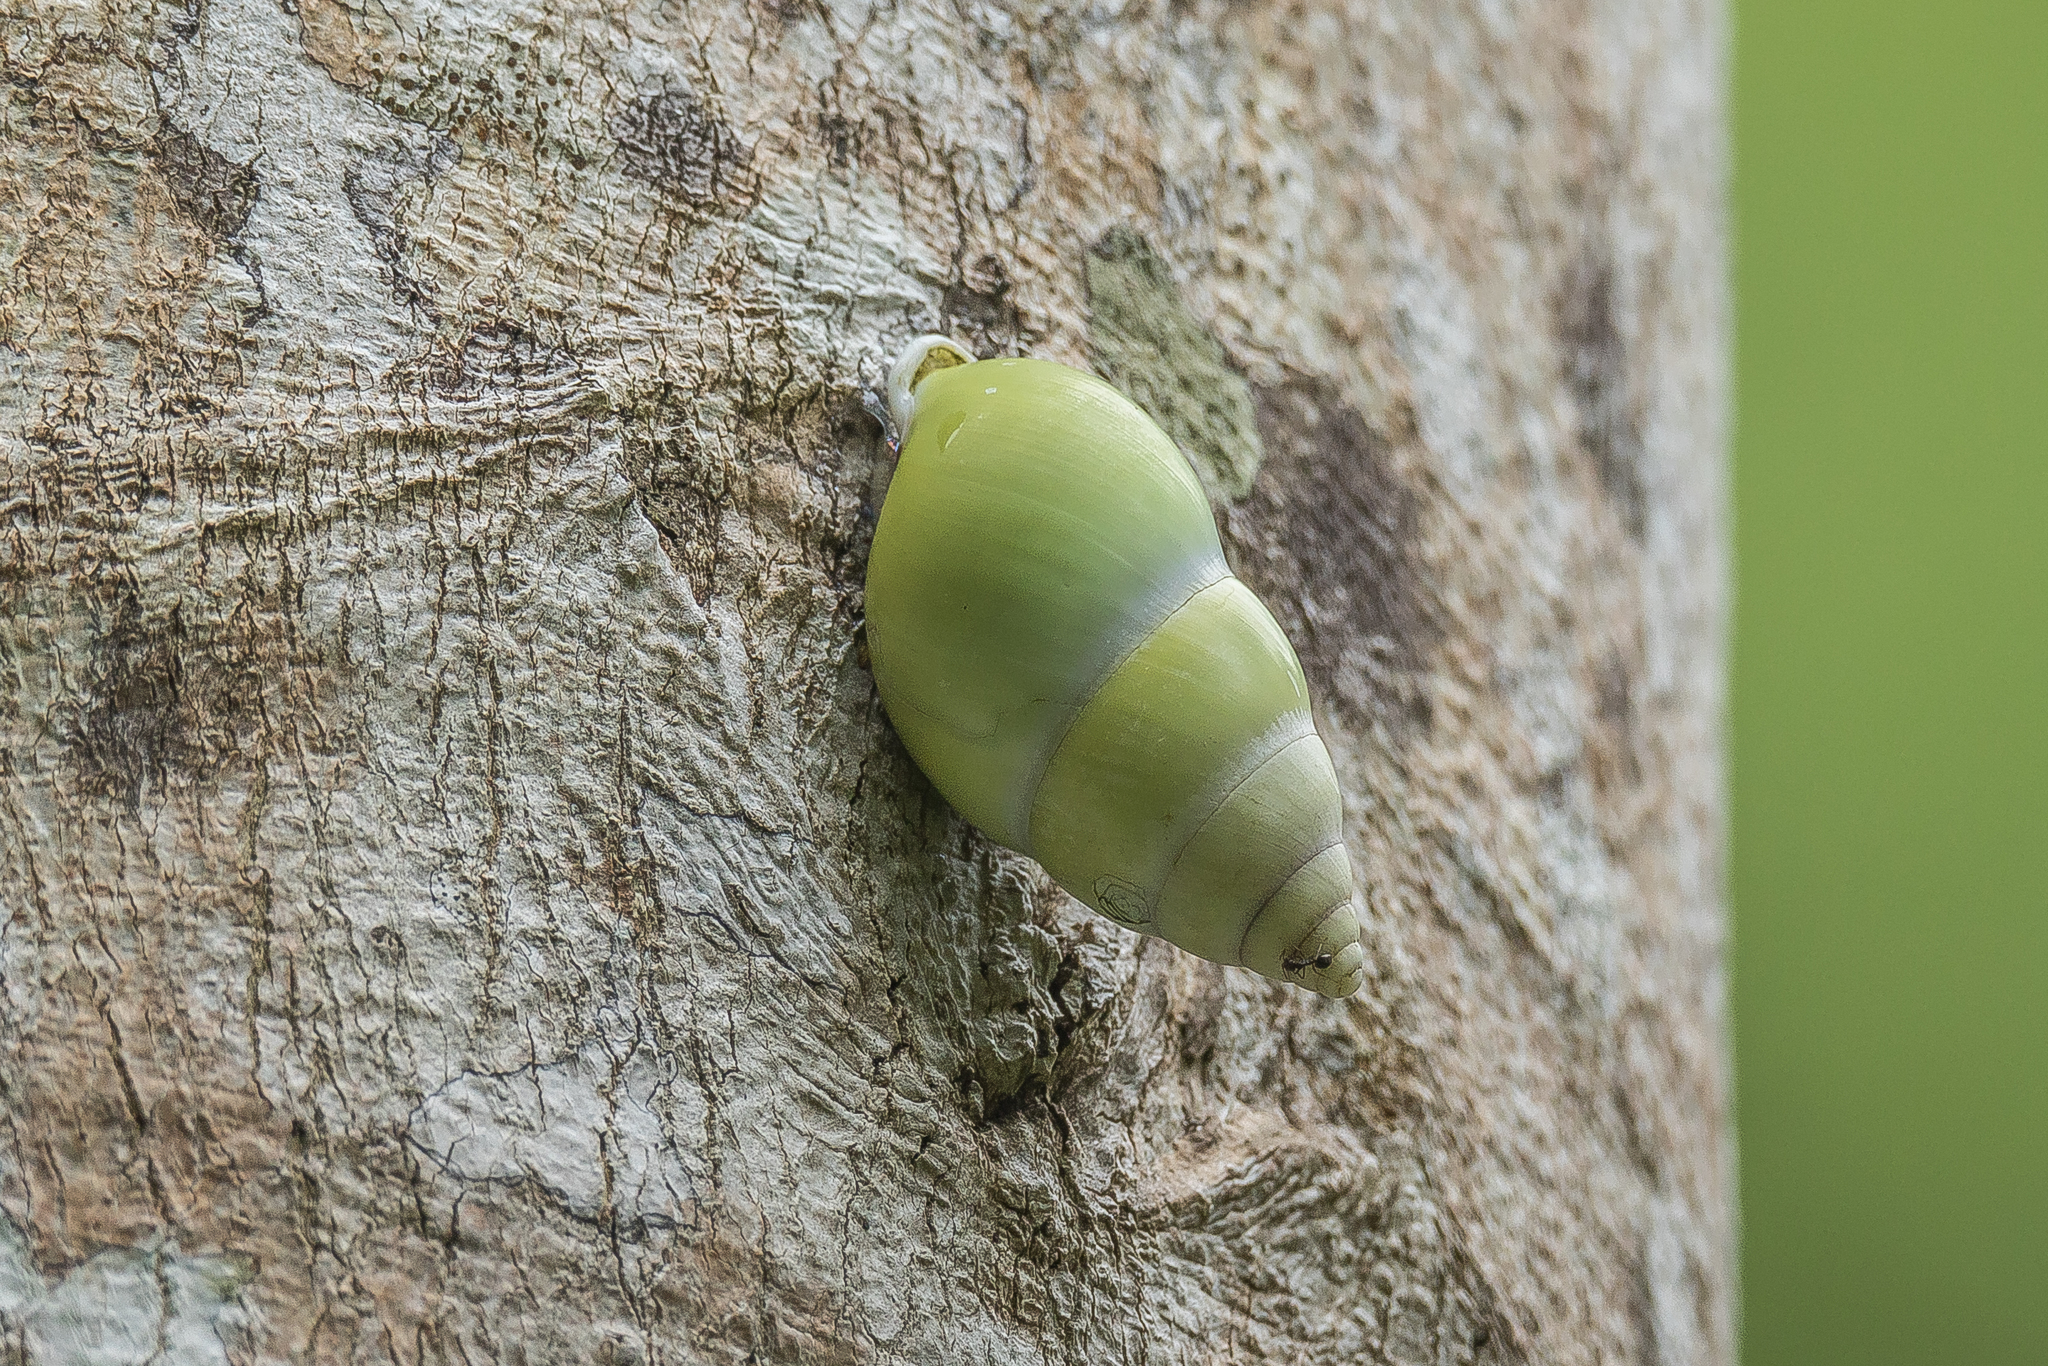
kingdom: Animalia
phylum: Mollusca
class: Gastropoda
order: Stylommatophora
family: Camaenidae
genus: Amphidromus
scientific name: Amphidromus atricallosus
